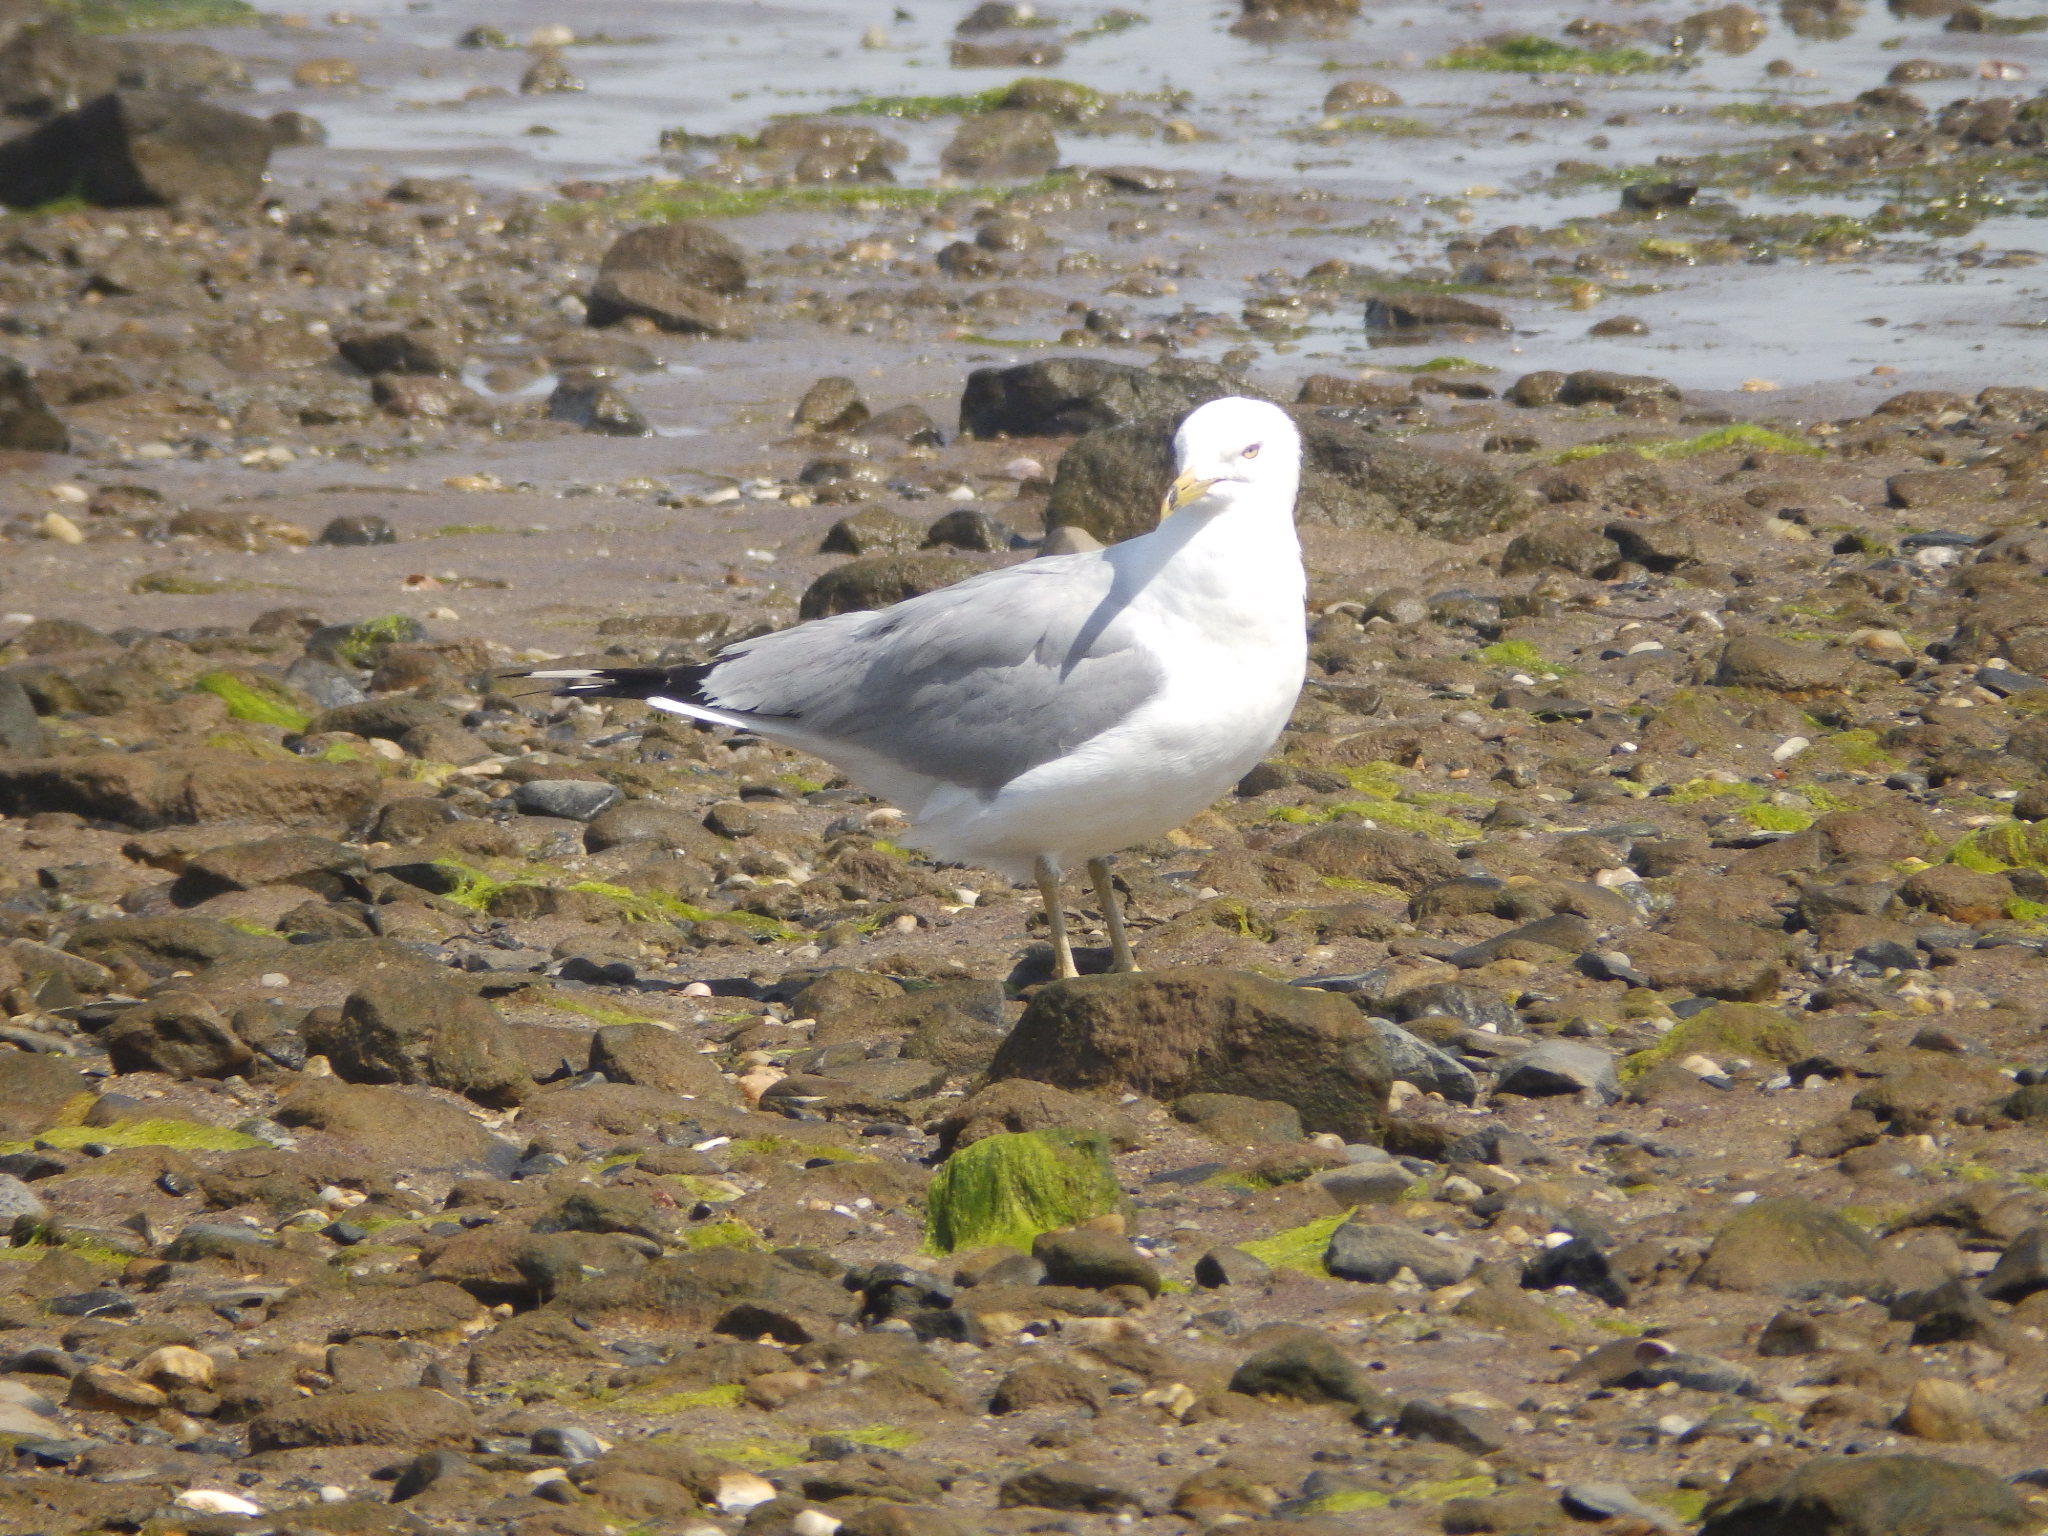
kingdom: Animalia
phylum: Chordata
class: Aves
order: Charadriiformes
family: Laridae
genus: Larus
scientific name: Larus delawarensis
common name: Ring-billed gull
